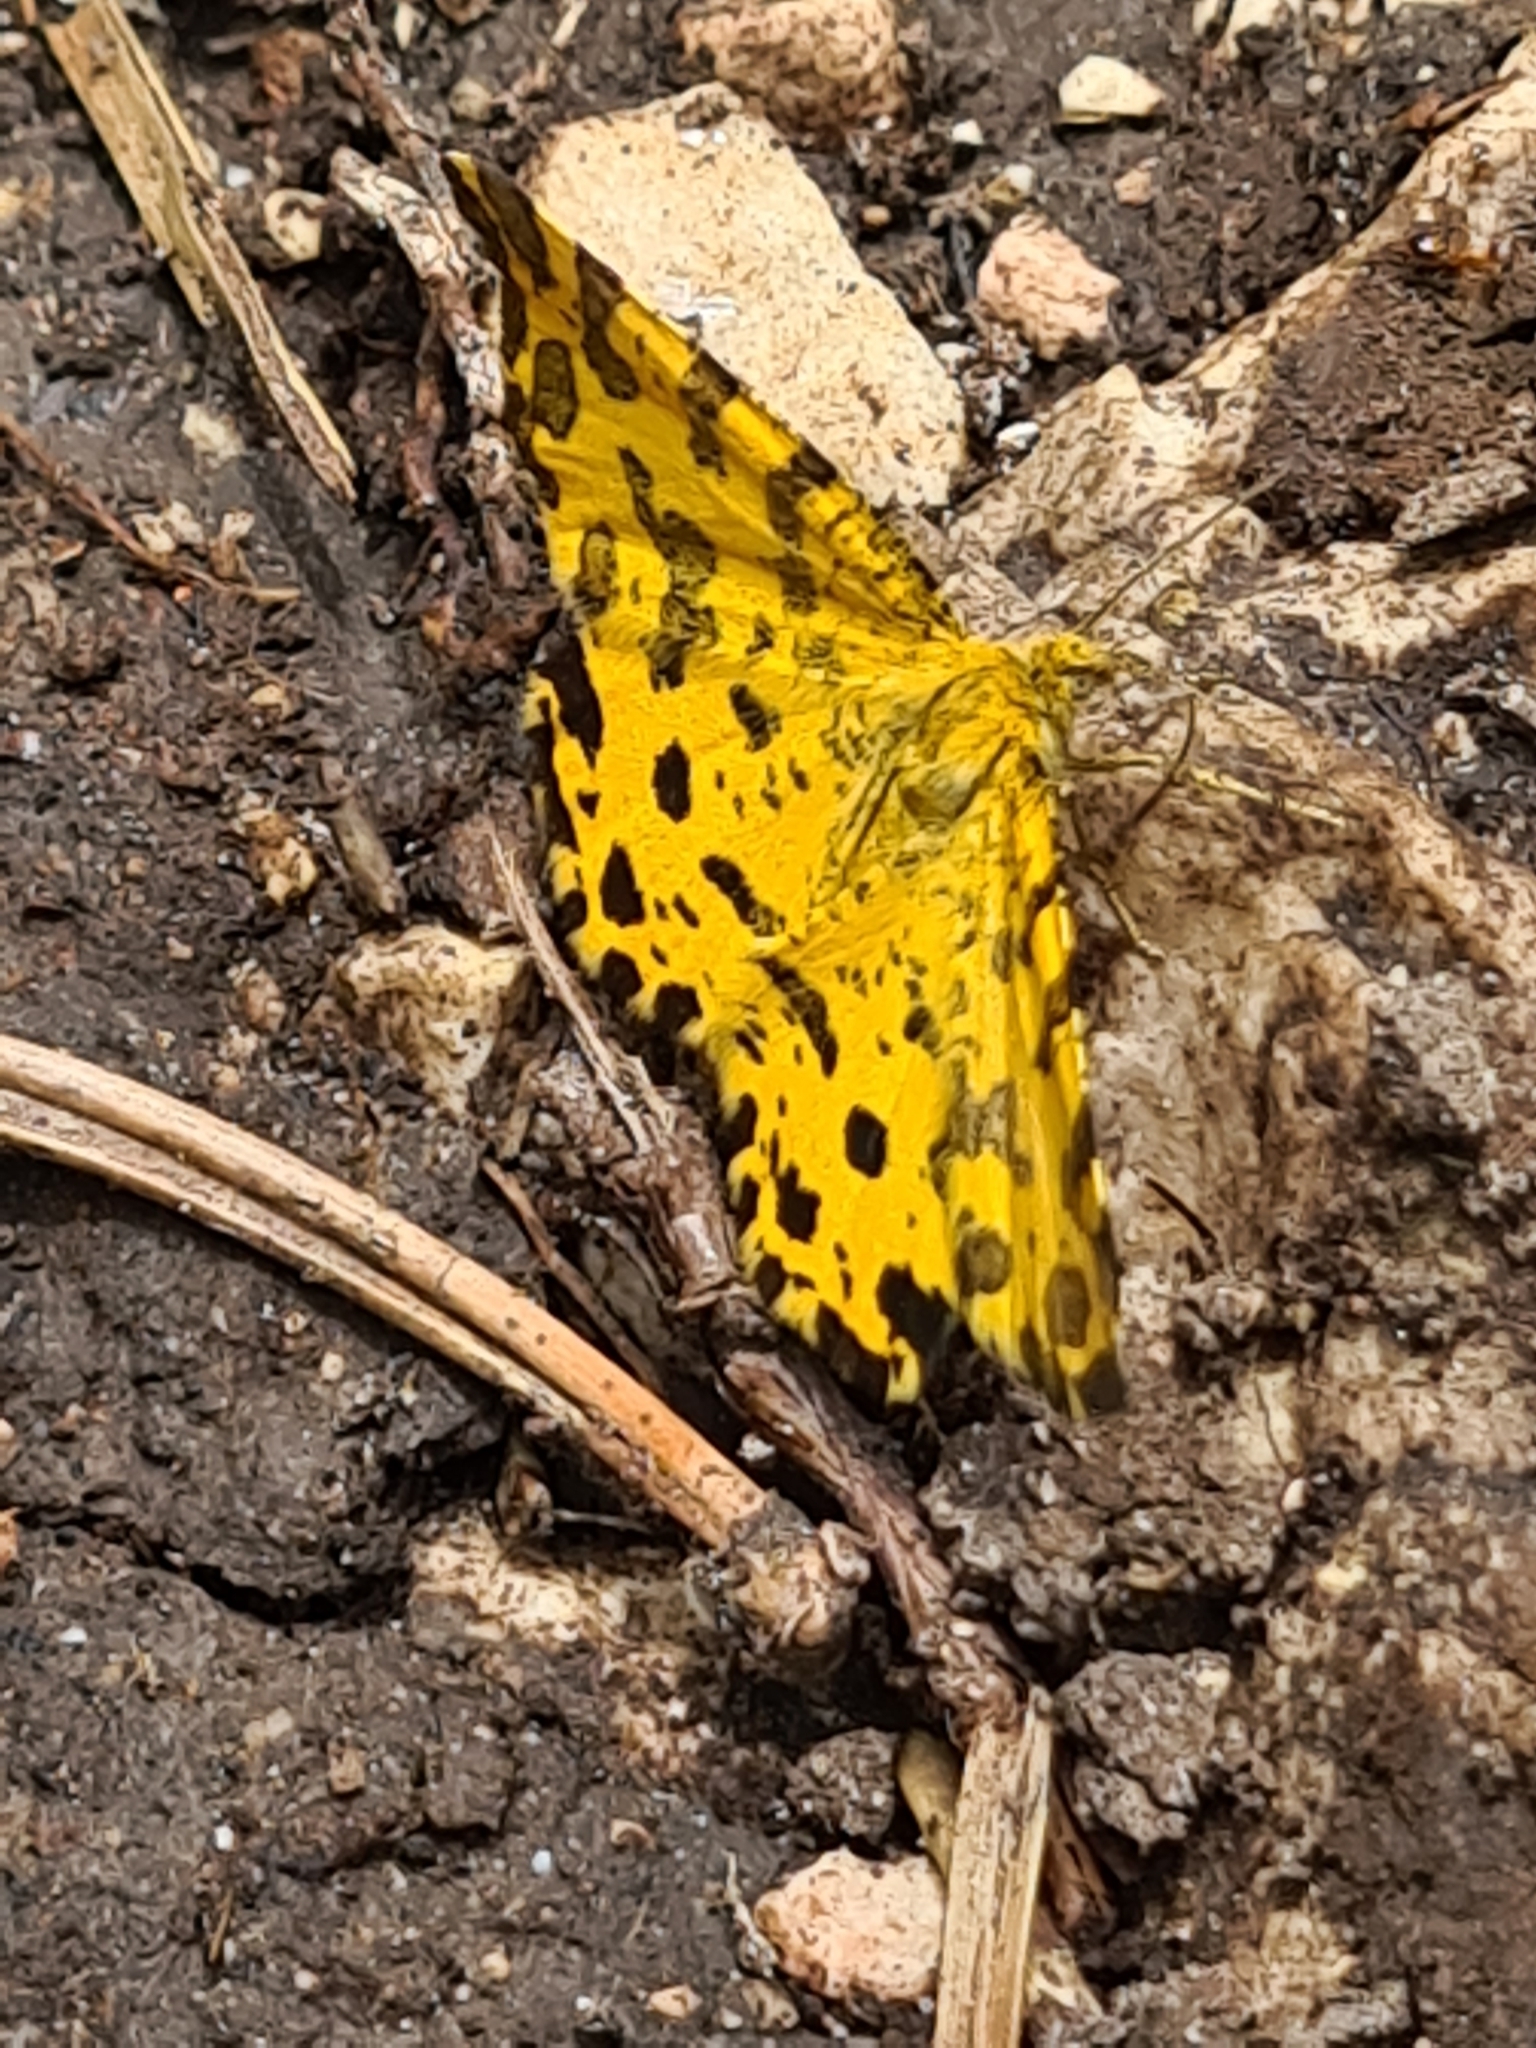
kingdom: Animalia
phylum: Arthropoda
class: Insecta
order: Lepidoptera
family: Geometridae
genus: Pseudopanthera
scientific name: Pseudopanthera macularia
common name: Speckled yellow
